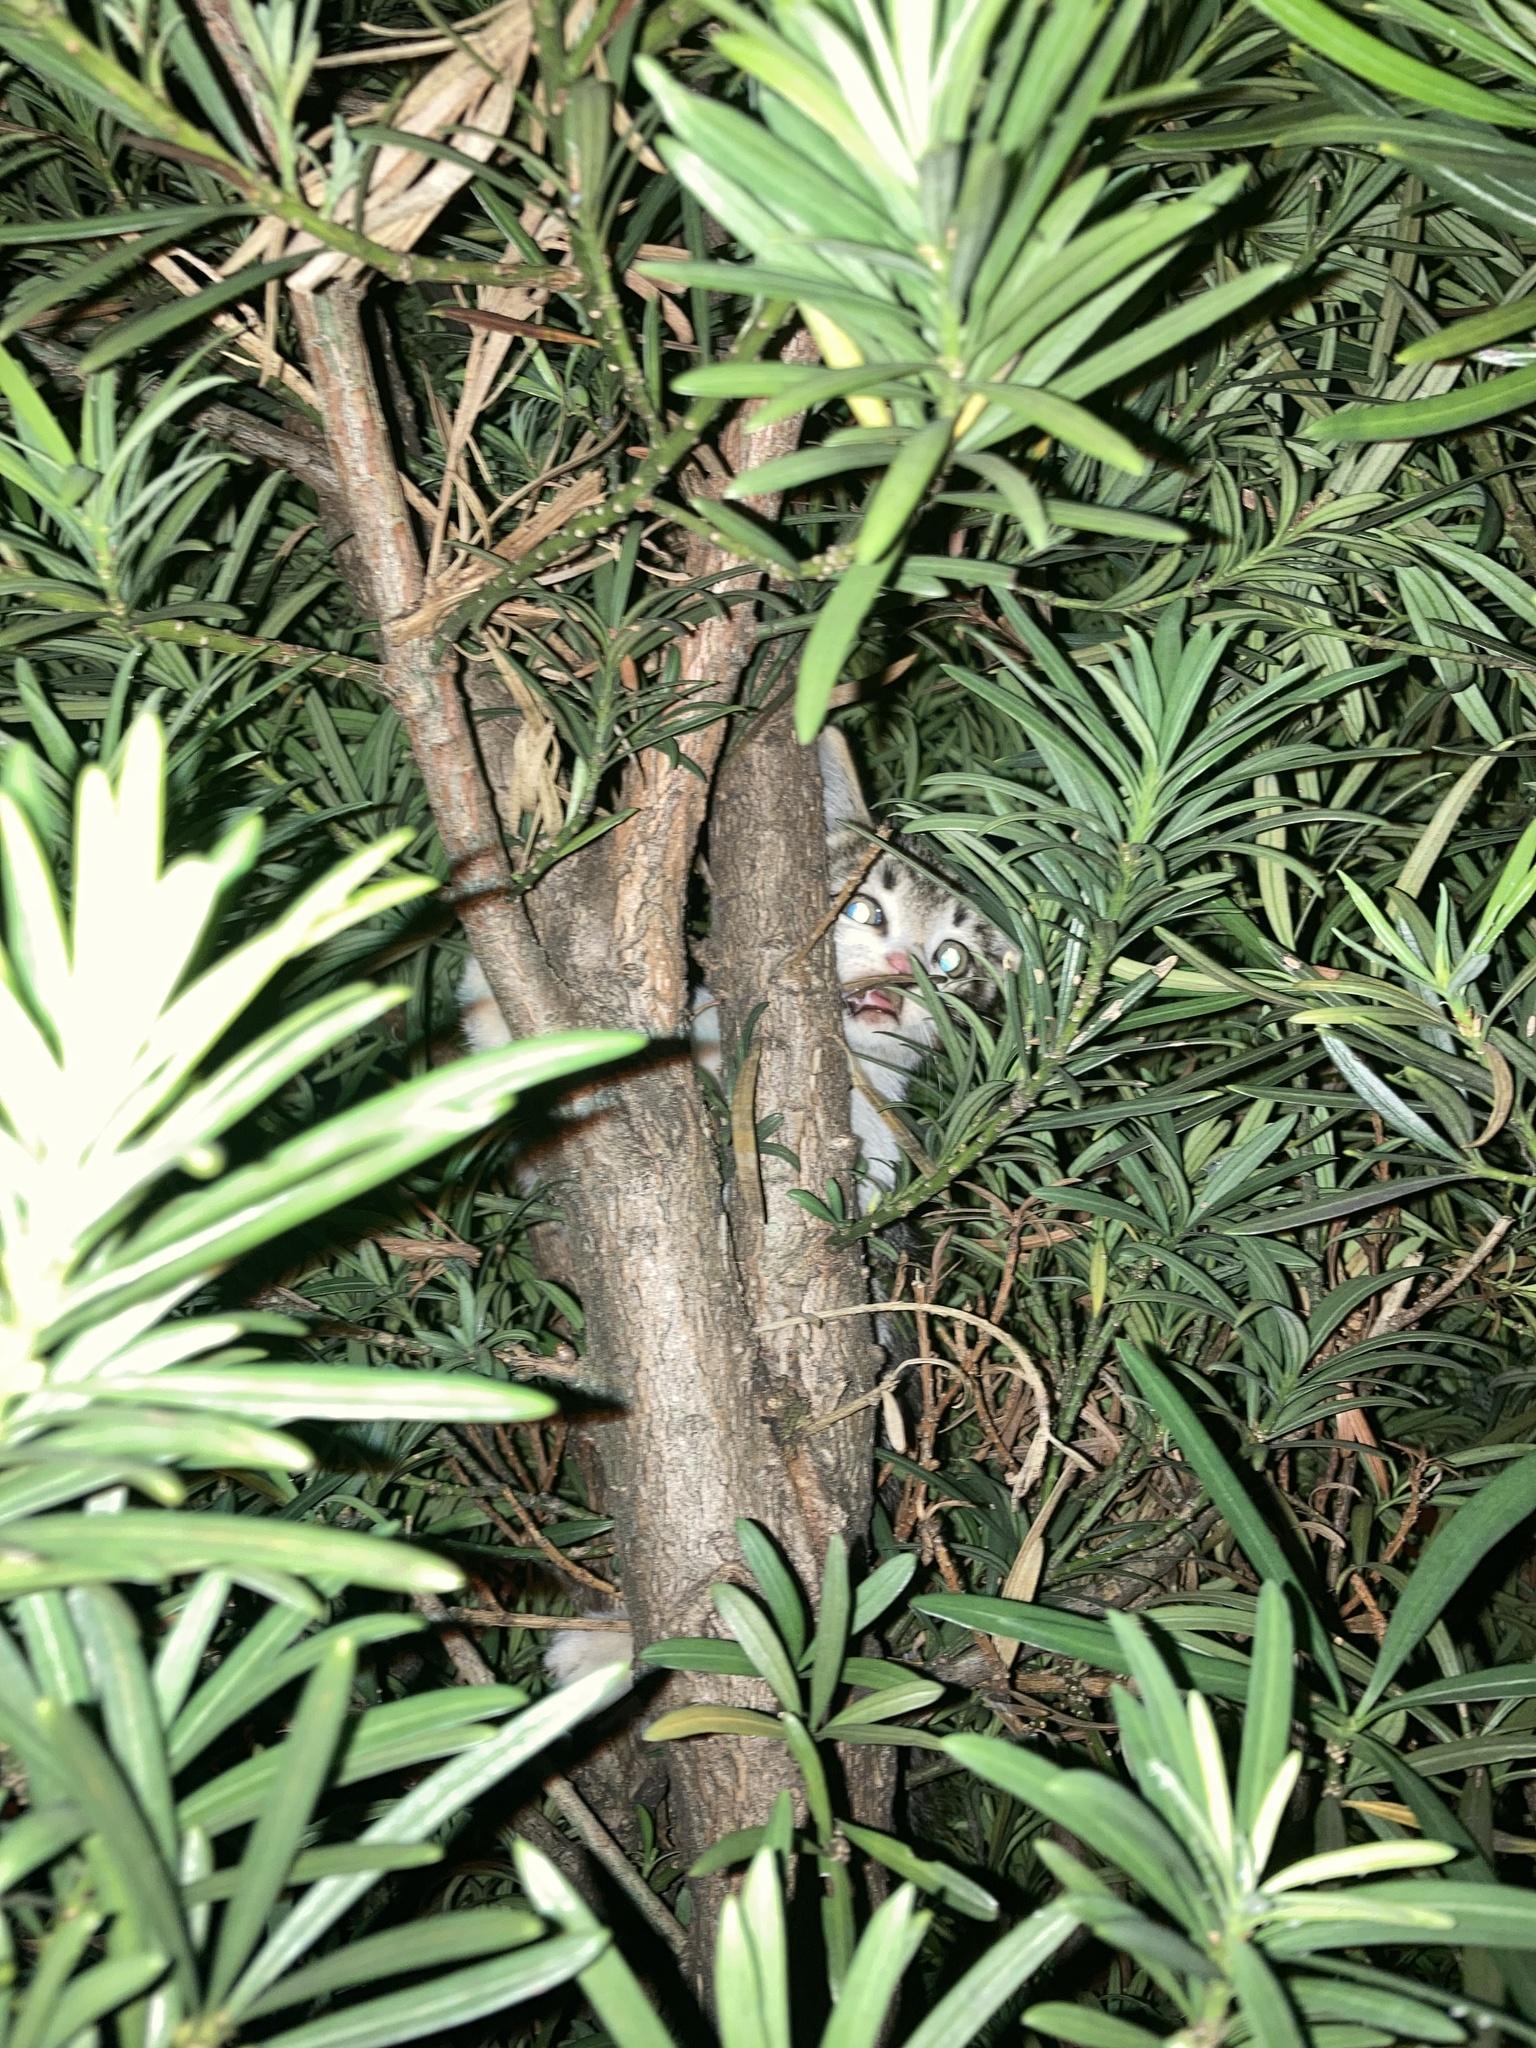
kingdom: Animalia
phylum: Chordata
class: Mammalia
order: Carnivora
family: Felidae
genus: Felis
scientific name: Felis catus
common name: Domestic cat
